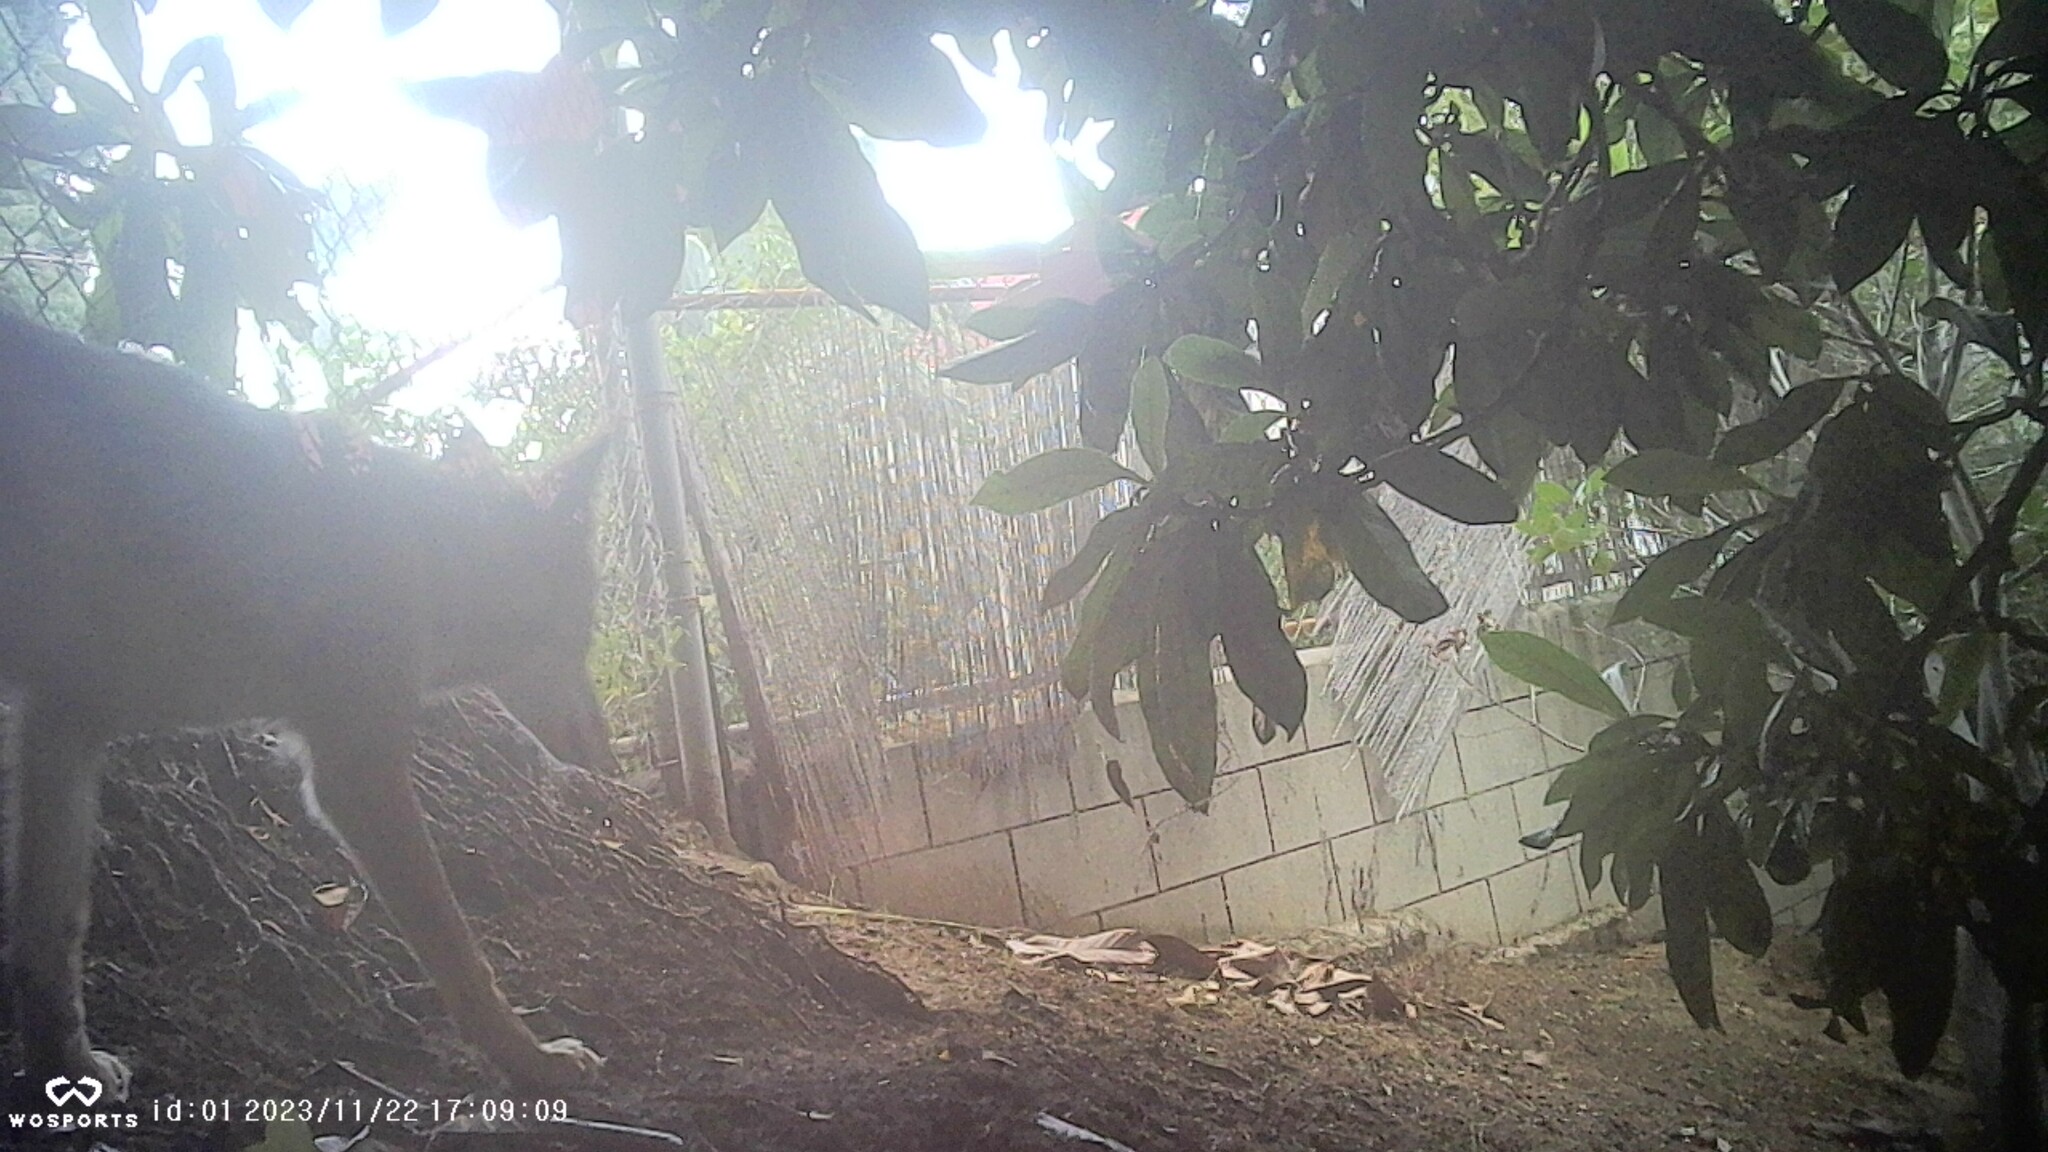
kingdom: Animalia
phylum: Chordata
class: Mammalia
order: Carnivora
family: Canidae
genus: Canis
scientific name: Canis latrans
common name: Coyote
